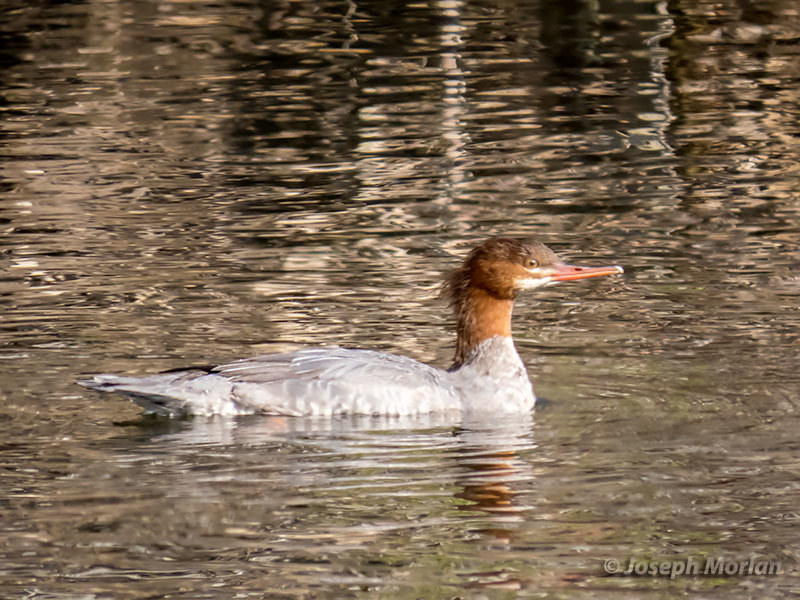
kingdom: Animalia
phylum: Chordata
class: Aves
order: Anseriformes
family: Anatidae
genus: Mergus
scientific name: Mergus merganser
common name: Common merganser
